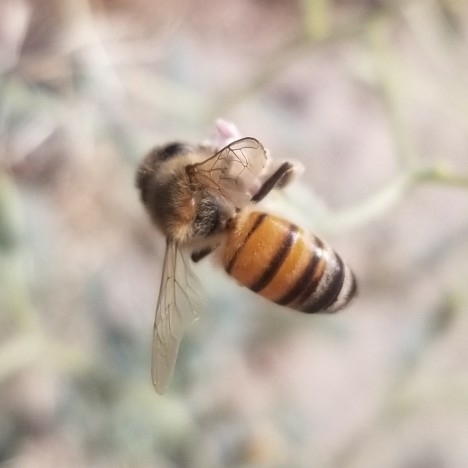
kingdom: Animalia
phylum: Arthropoda
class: Insecta
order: Hymenoptera
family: Apidae
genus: Apis
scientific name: Apis mellifera
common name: Honey bee
